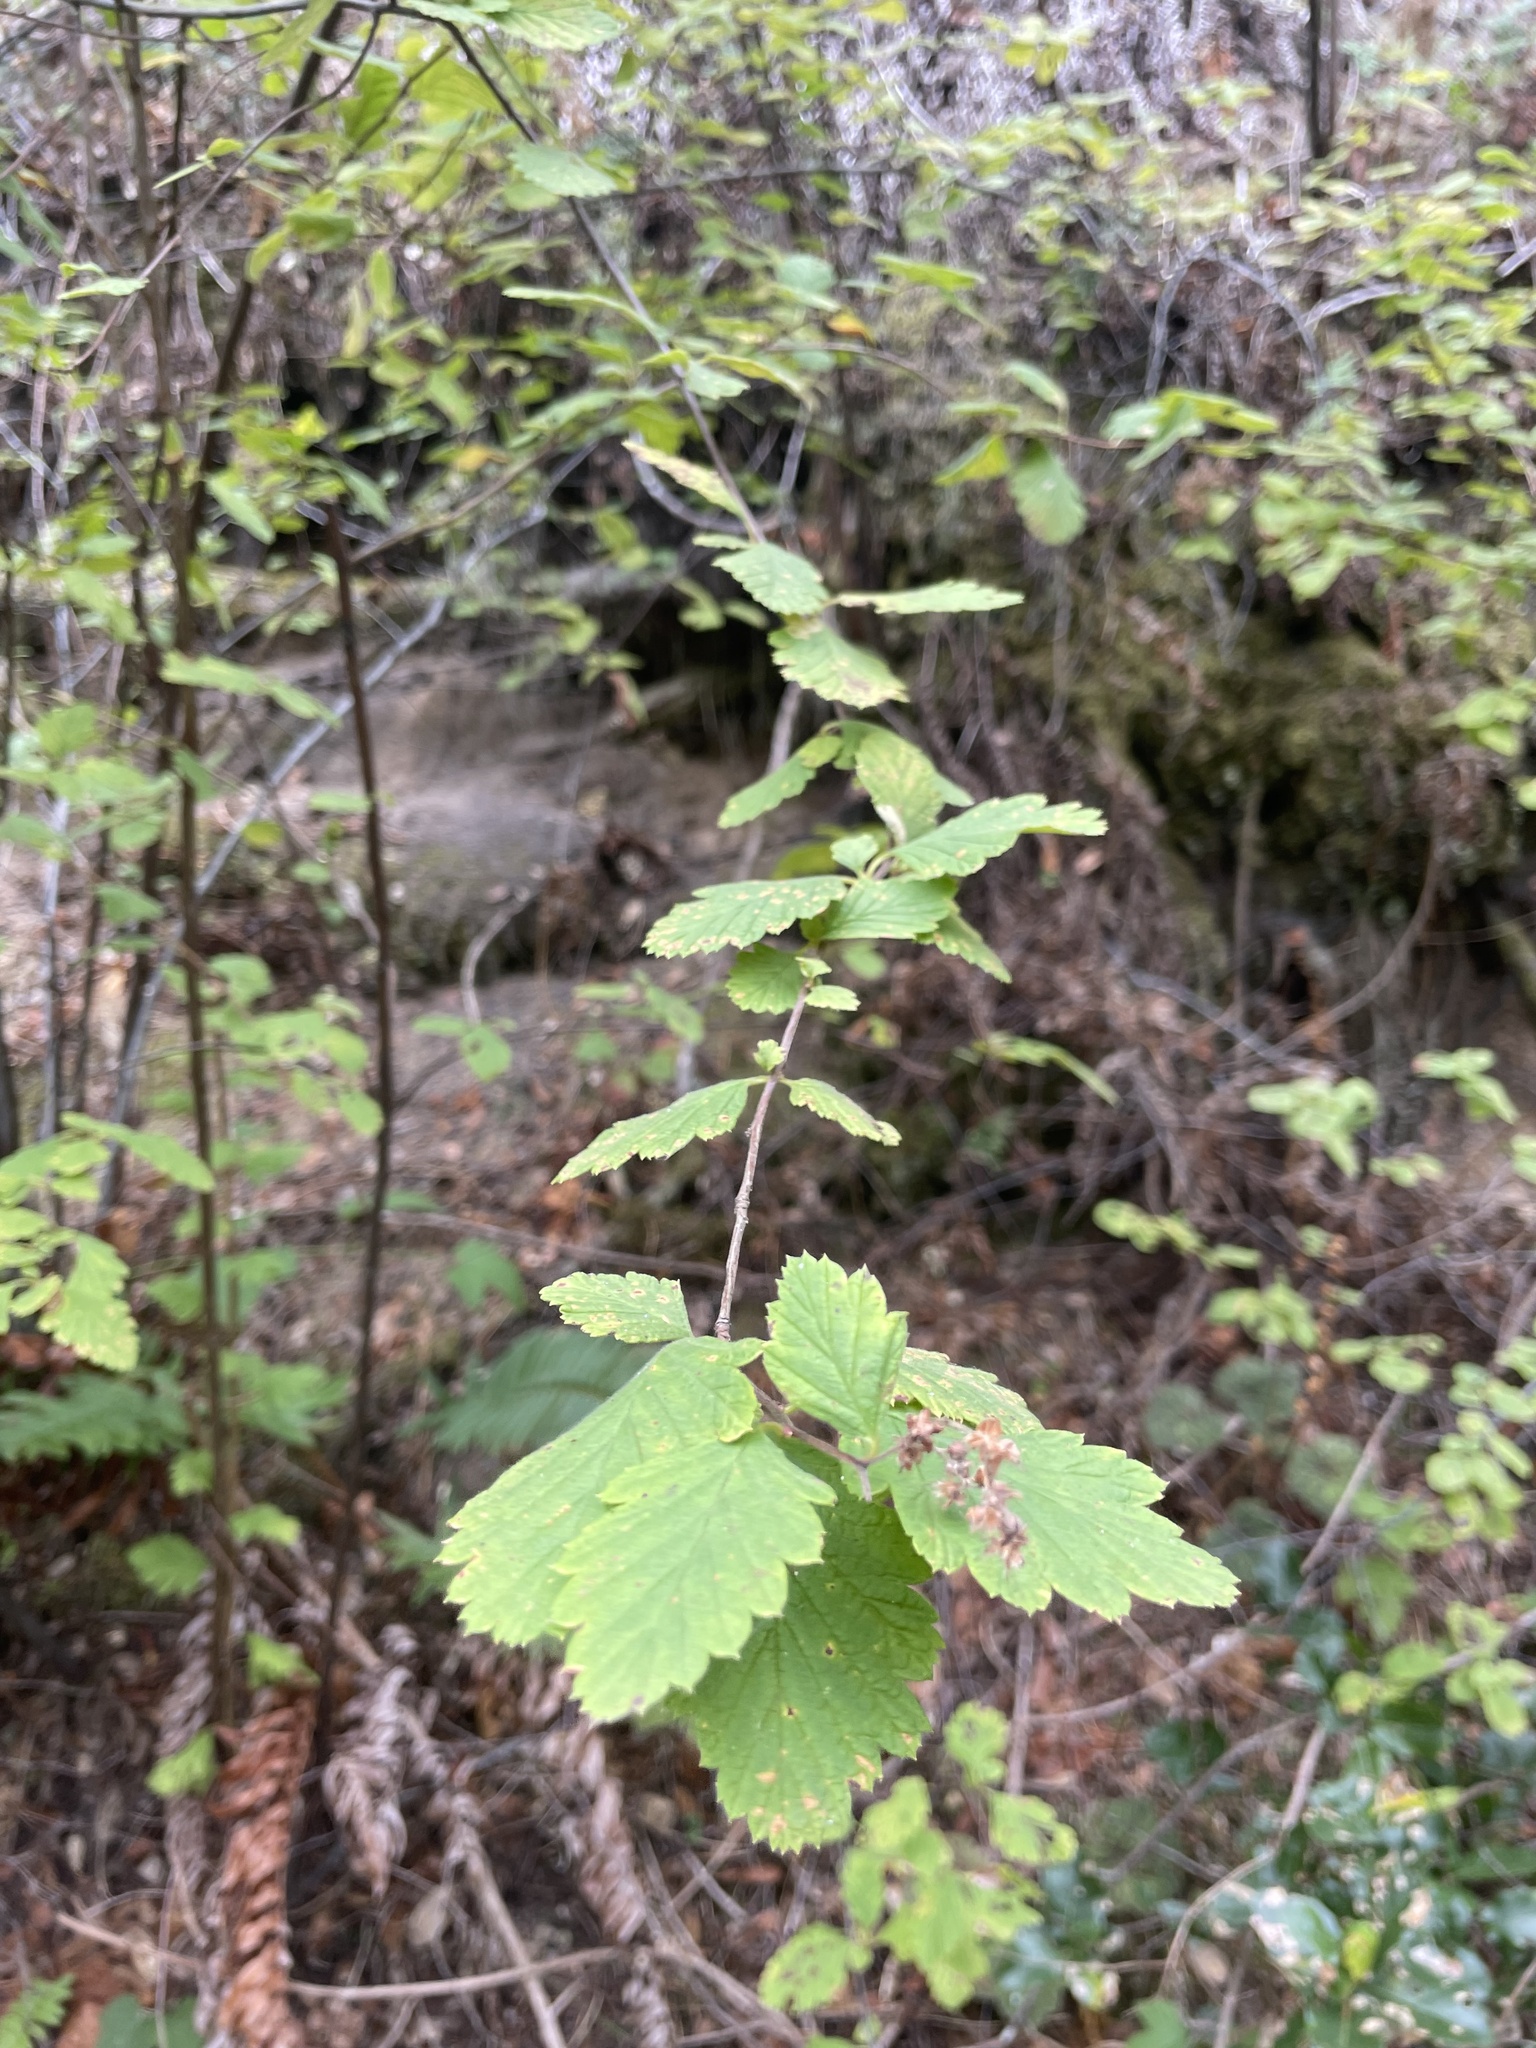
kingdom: Plantae
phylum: Tracheophyta
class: Magnoliopsida
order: Rosales
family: Rosaceae
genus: Holodiscus
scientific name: Holodiscus discolor
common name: Oceanspray
